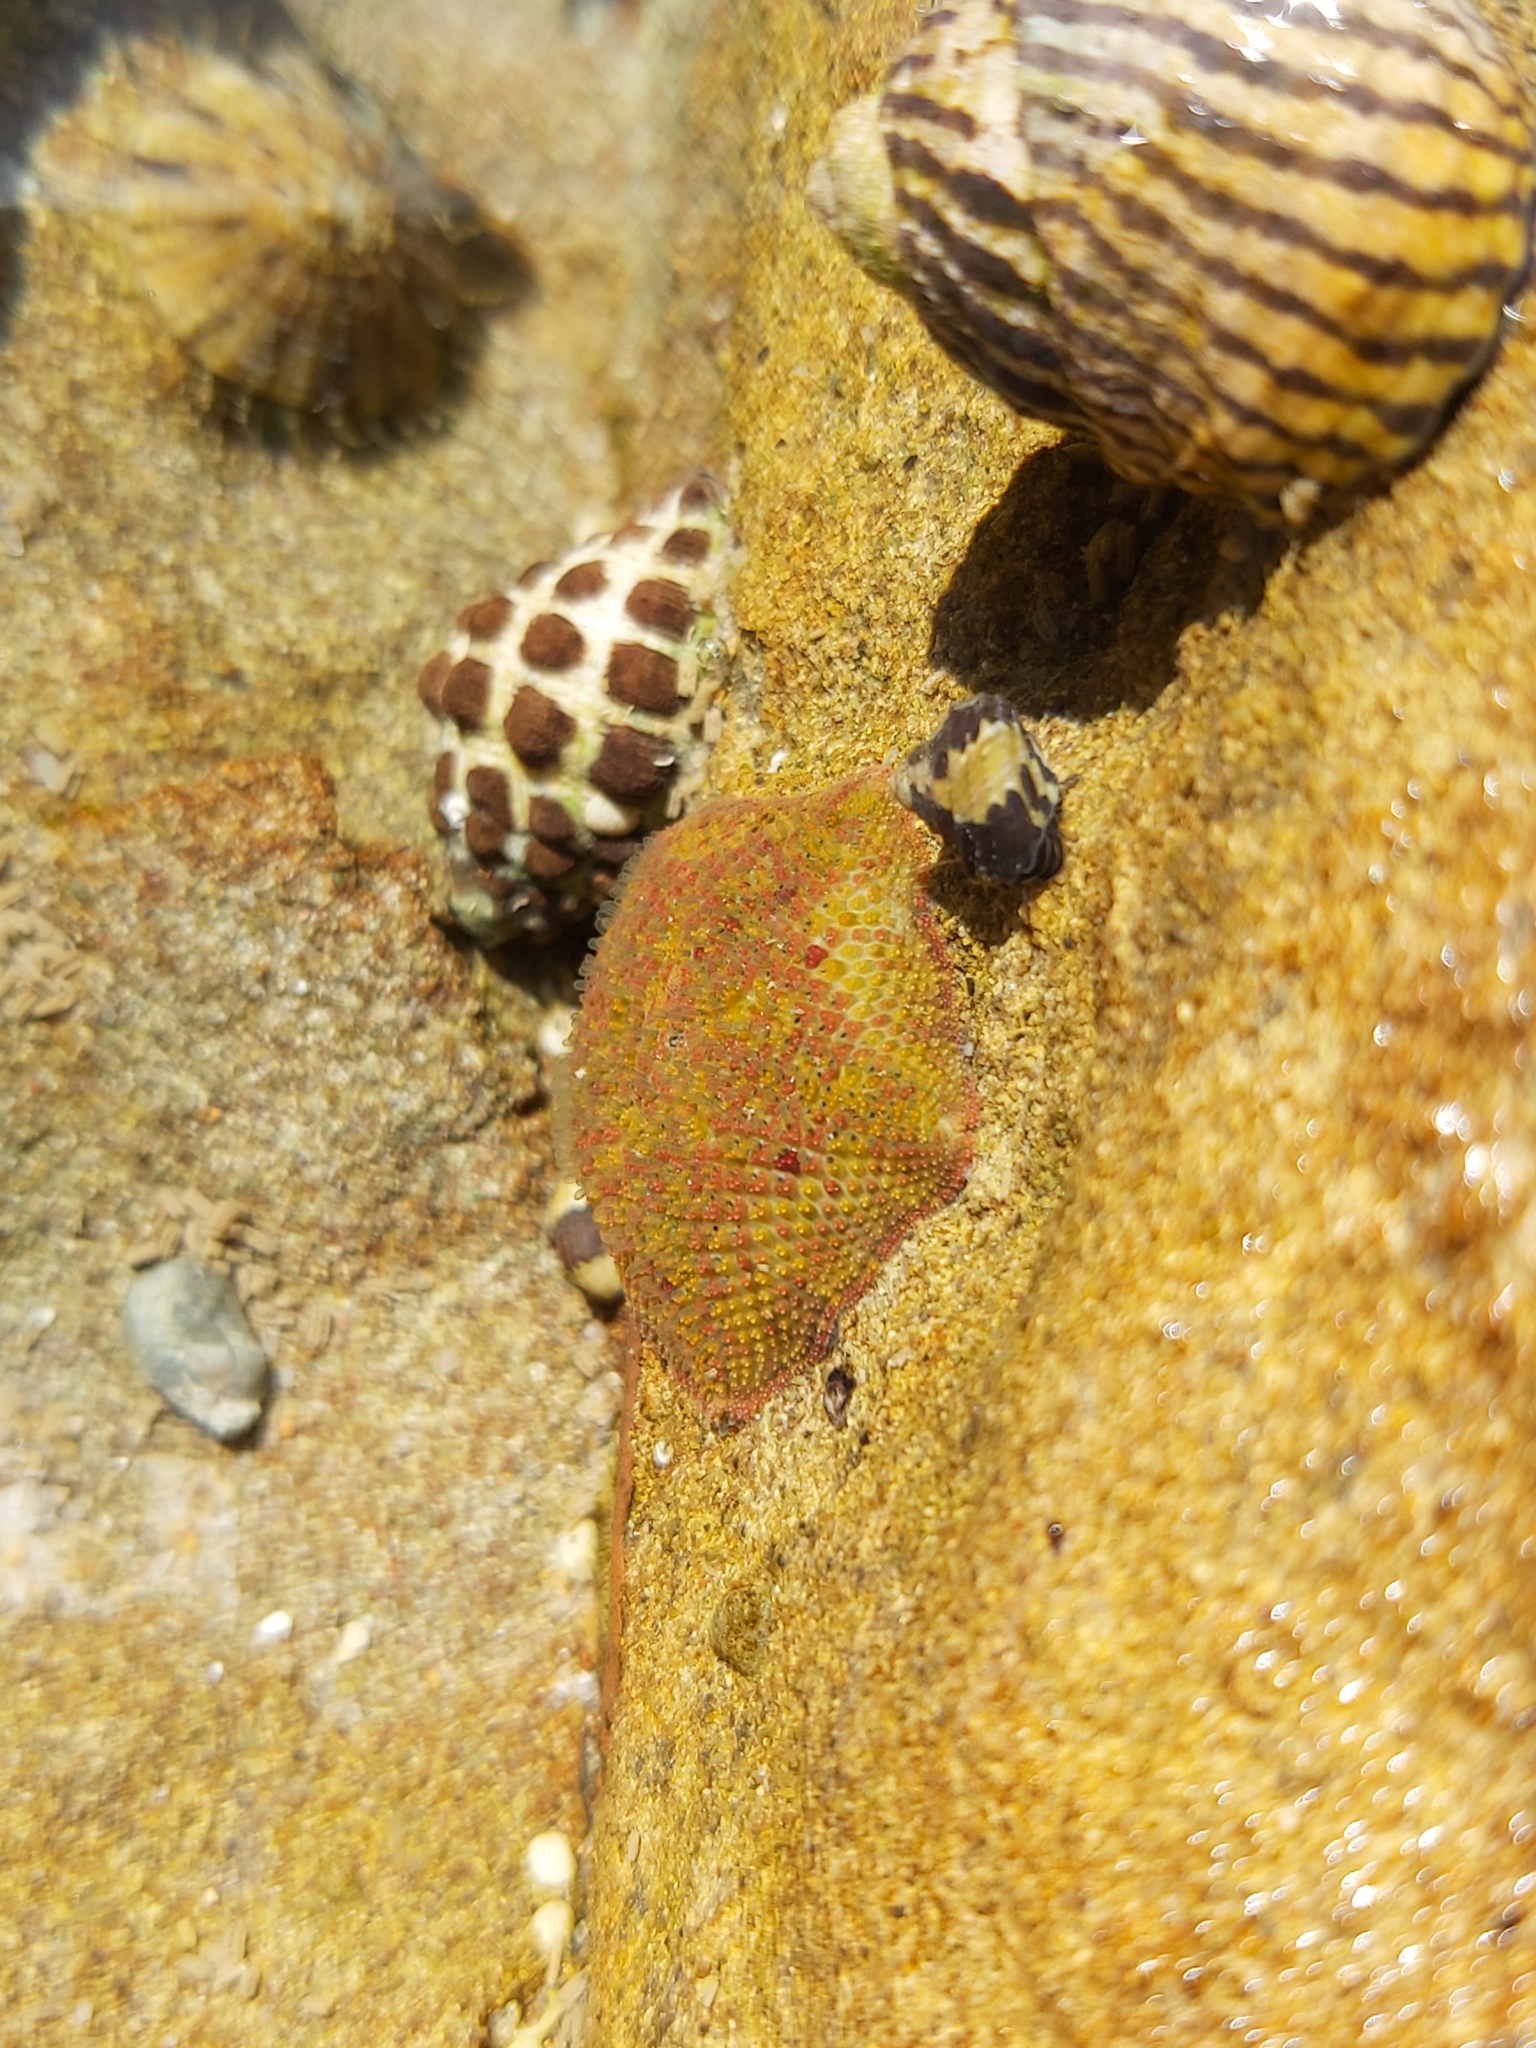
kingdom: Animalia
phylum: Echinodermata
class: Asteroidea
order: Valvatida
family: Asterinidae
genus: Parvulastra
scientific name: Parvulastra exigua
